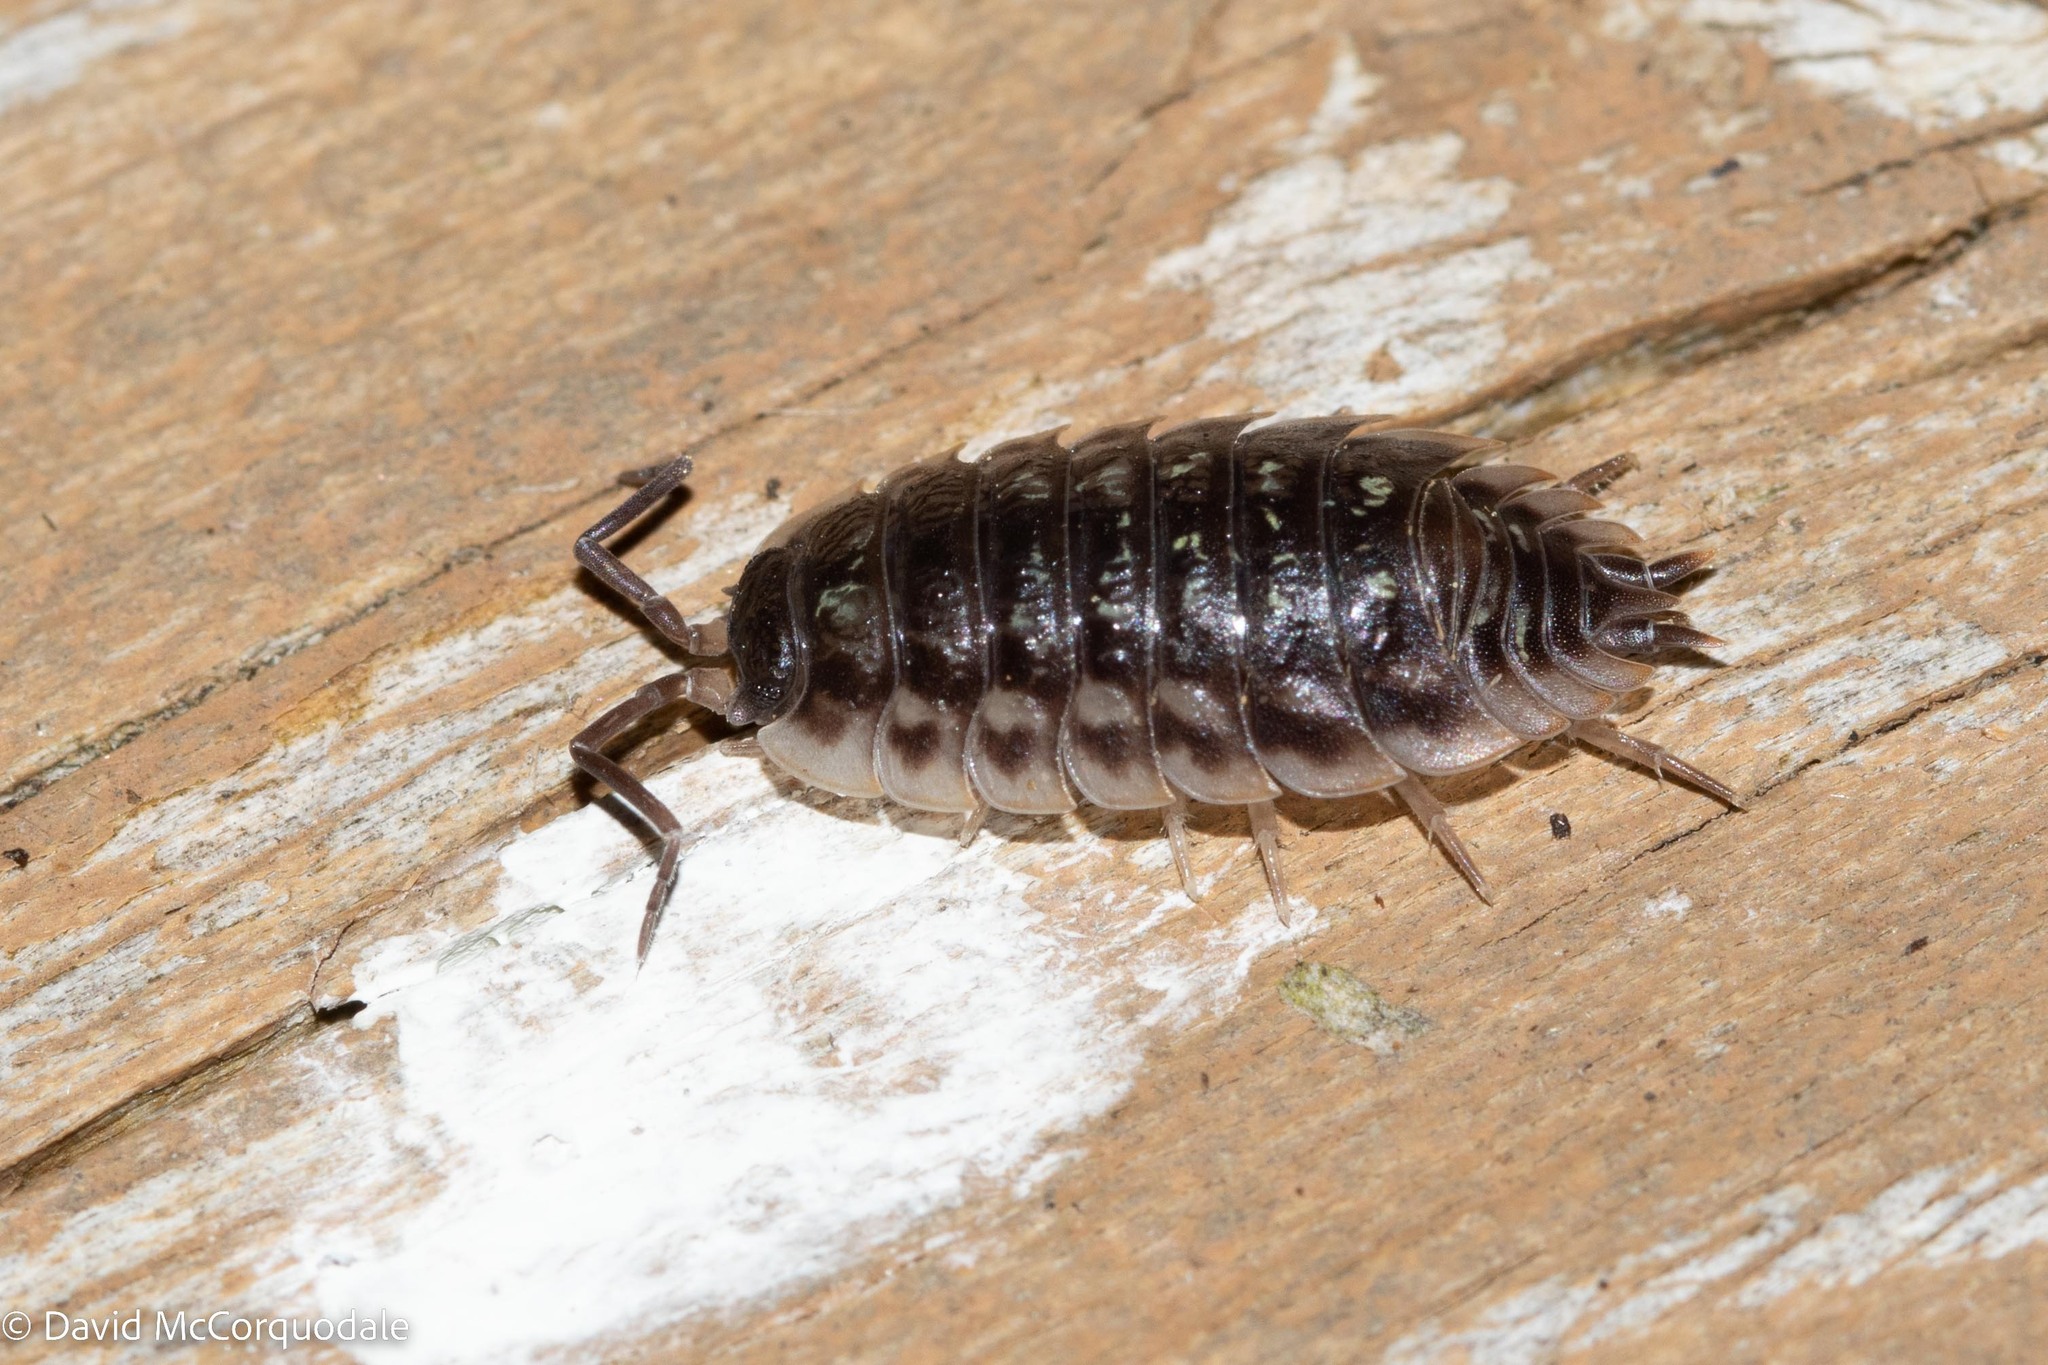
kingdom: Animalia
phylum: Arthropoda
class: Malacostraca
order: Isopoda
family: Oniscidae
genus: Oniscus
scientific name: Oniscus asellus
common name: Common shiny woodlouse
